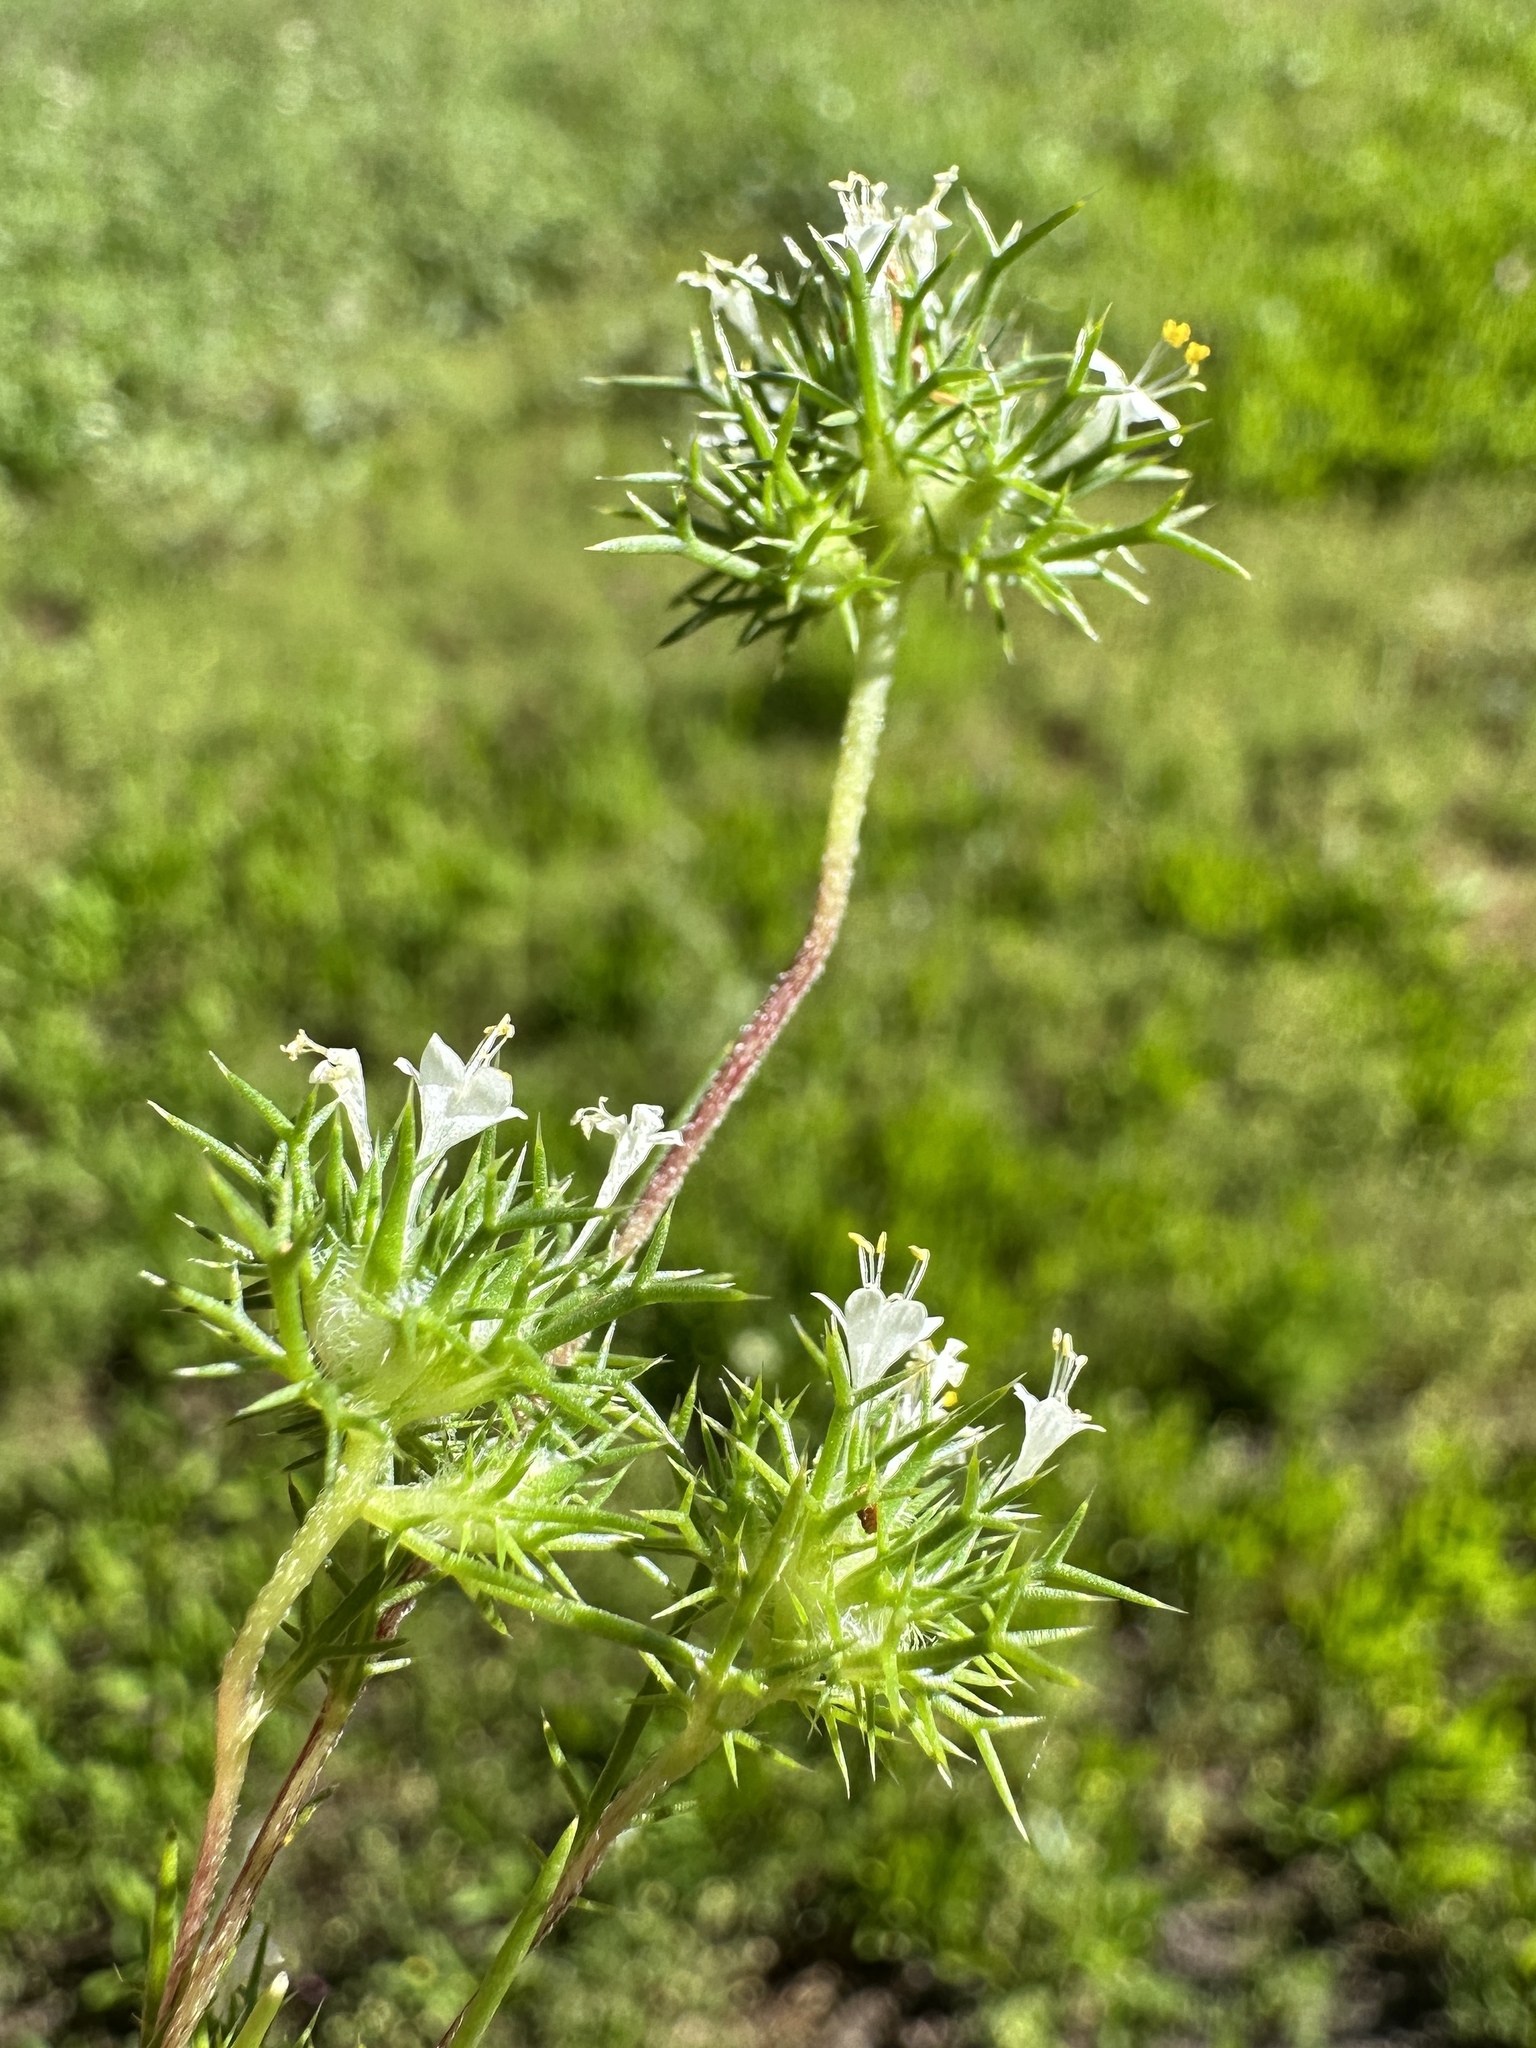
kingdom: Plantae
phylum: Tracheophyta
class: Magnoliopsida
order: Ericales
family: Polemoniaceae
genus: Navarretia
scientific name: Navarretia intertexta
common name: Needle-leaved navarretia
